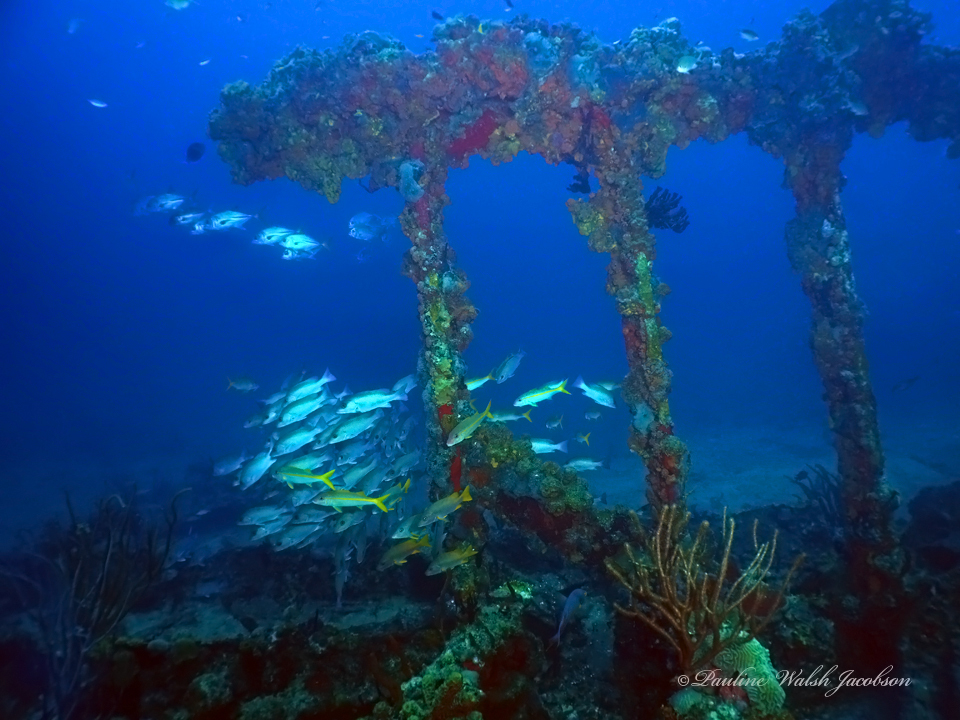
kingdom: Animalia
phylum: Chordata
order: Perciformes
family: Mullidae
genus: Mulloidichthys
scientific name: Mulloidichthys martinicus
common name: Yellow goatfish
